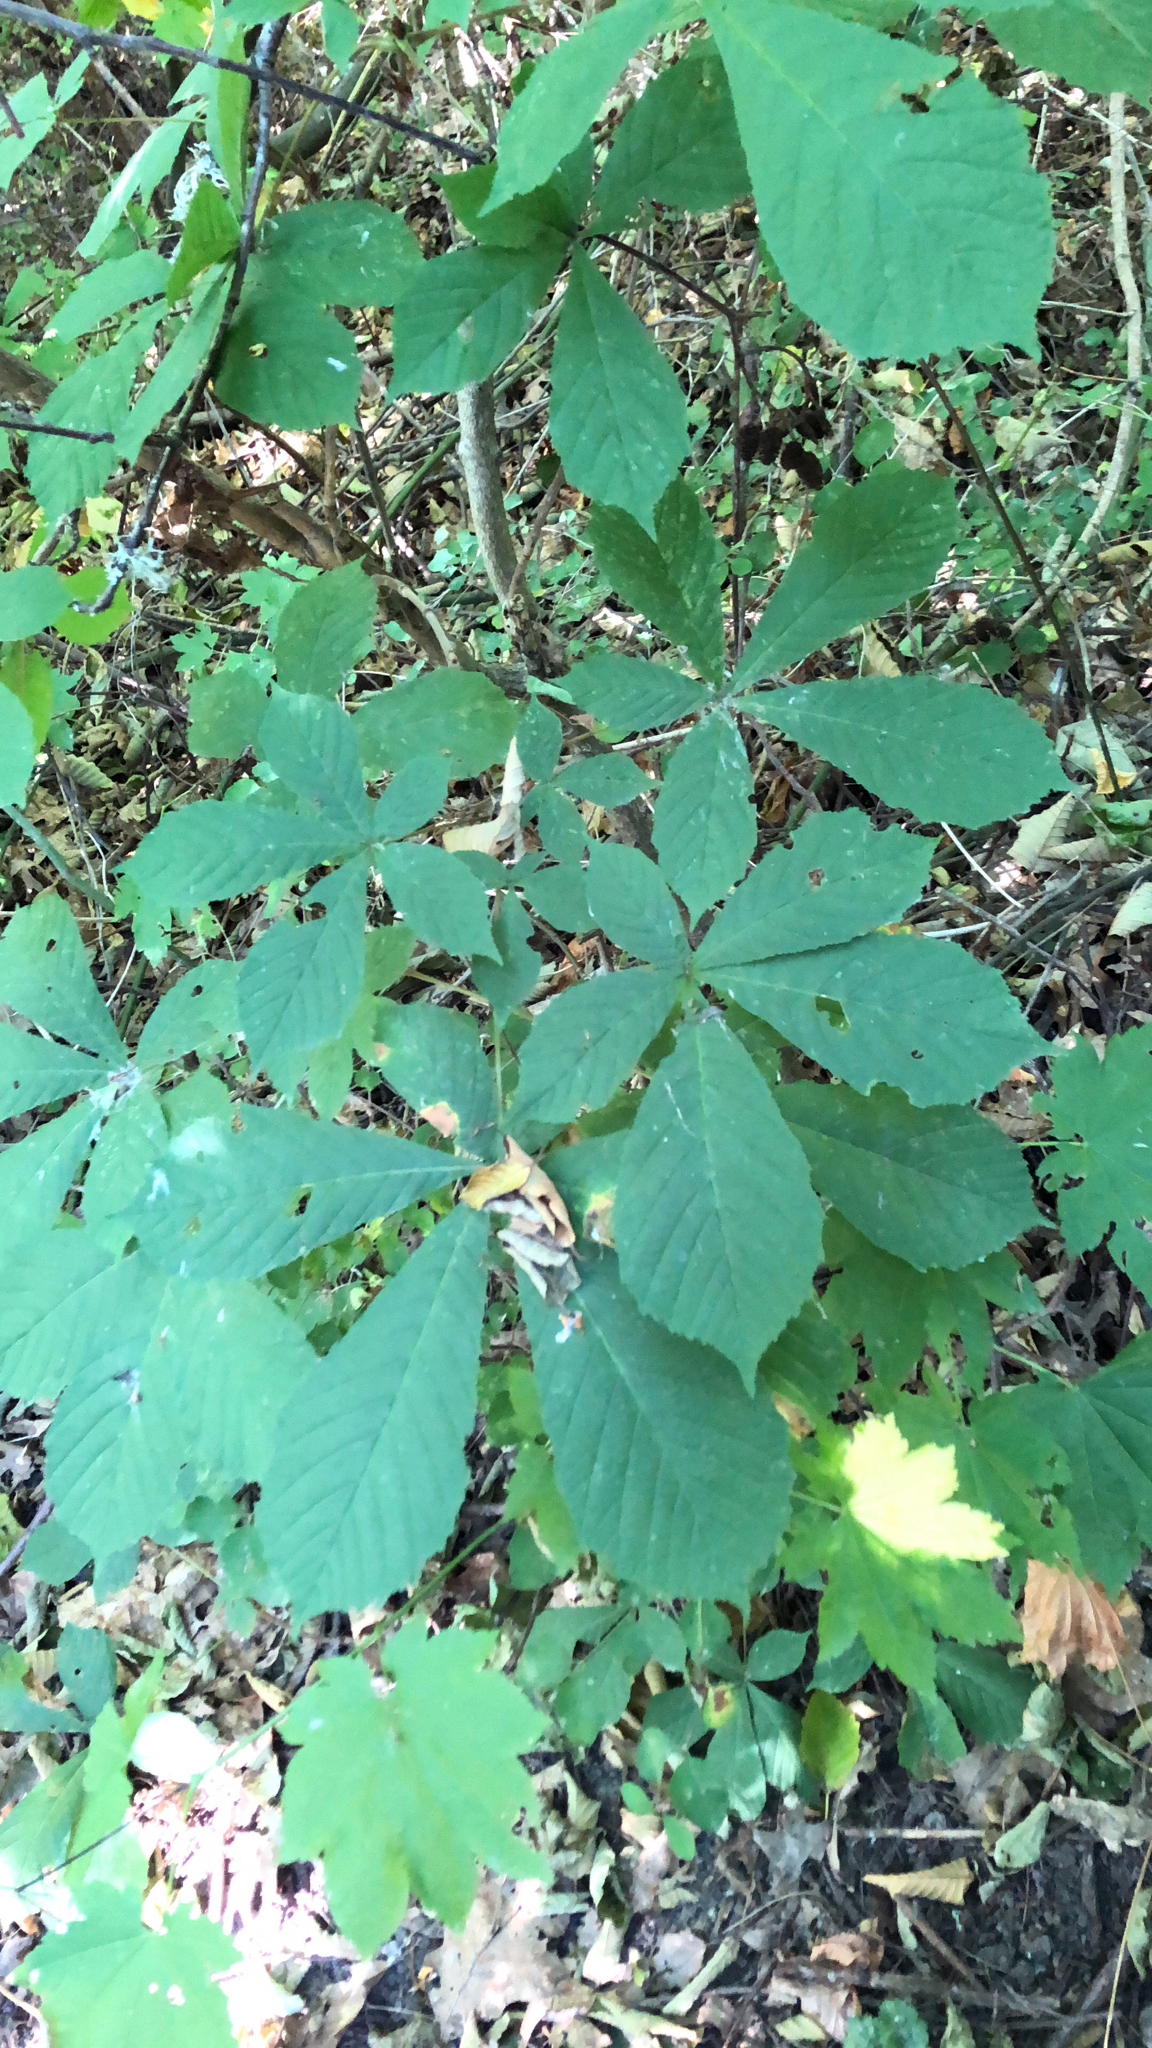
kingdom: Plantae
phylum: Tracheophyta
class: Magnoliopsida
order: Sapindales
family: Sapindaceae
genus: Aesculus
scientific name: Aesculus hippocastanum
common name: Horse-chestnut
